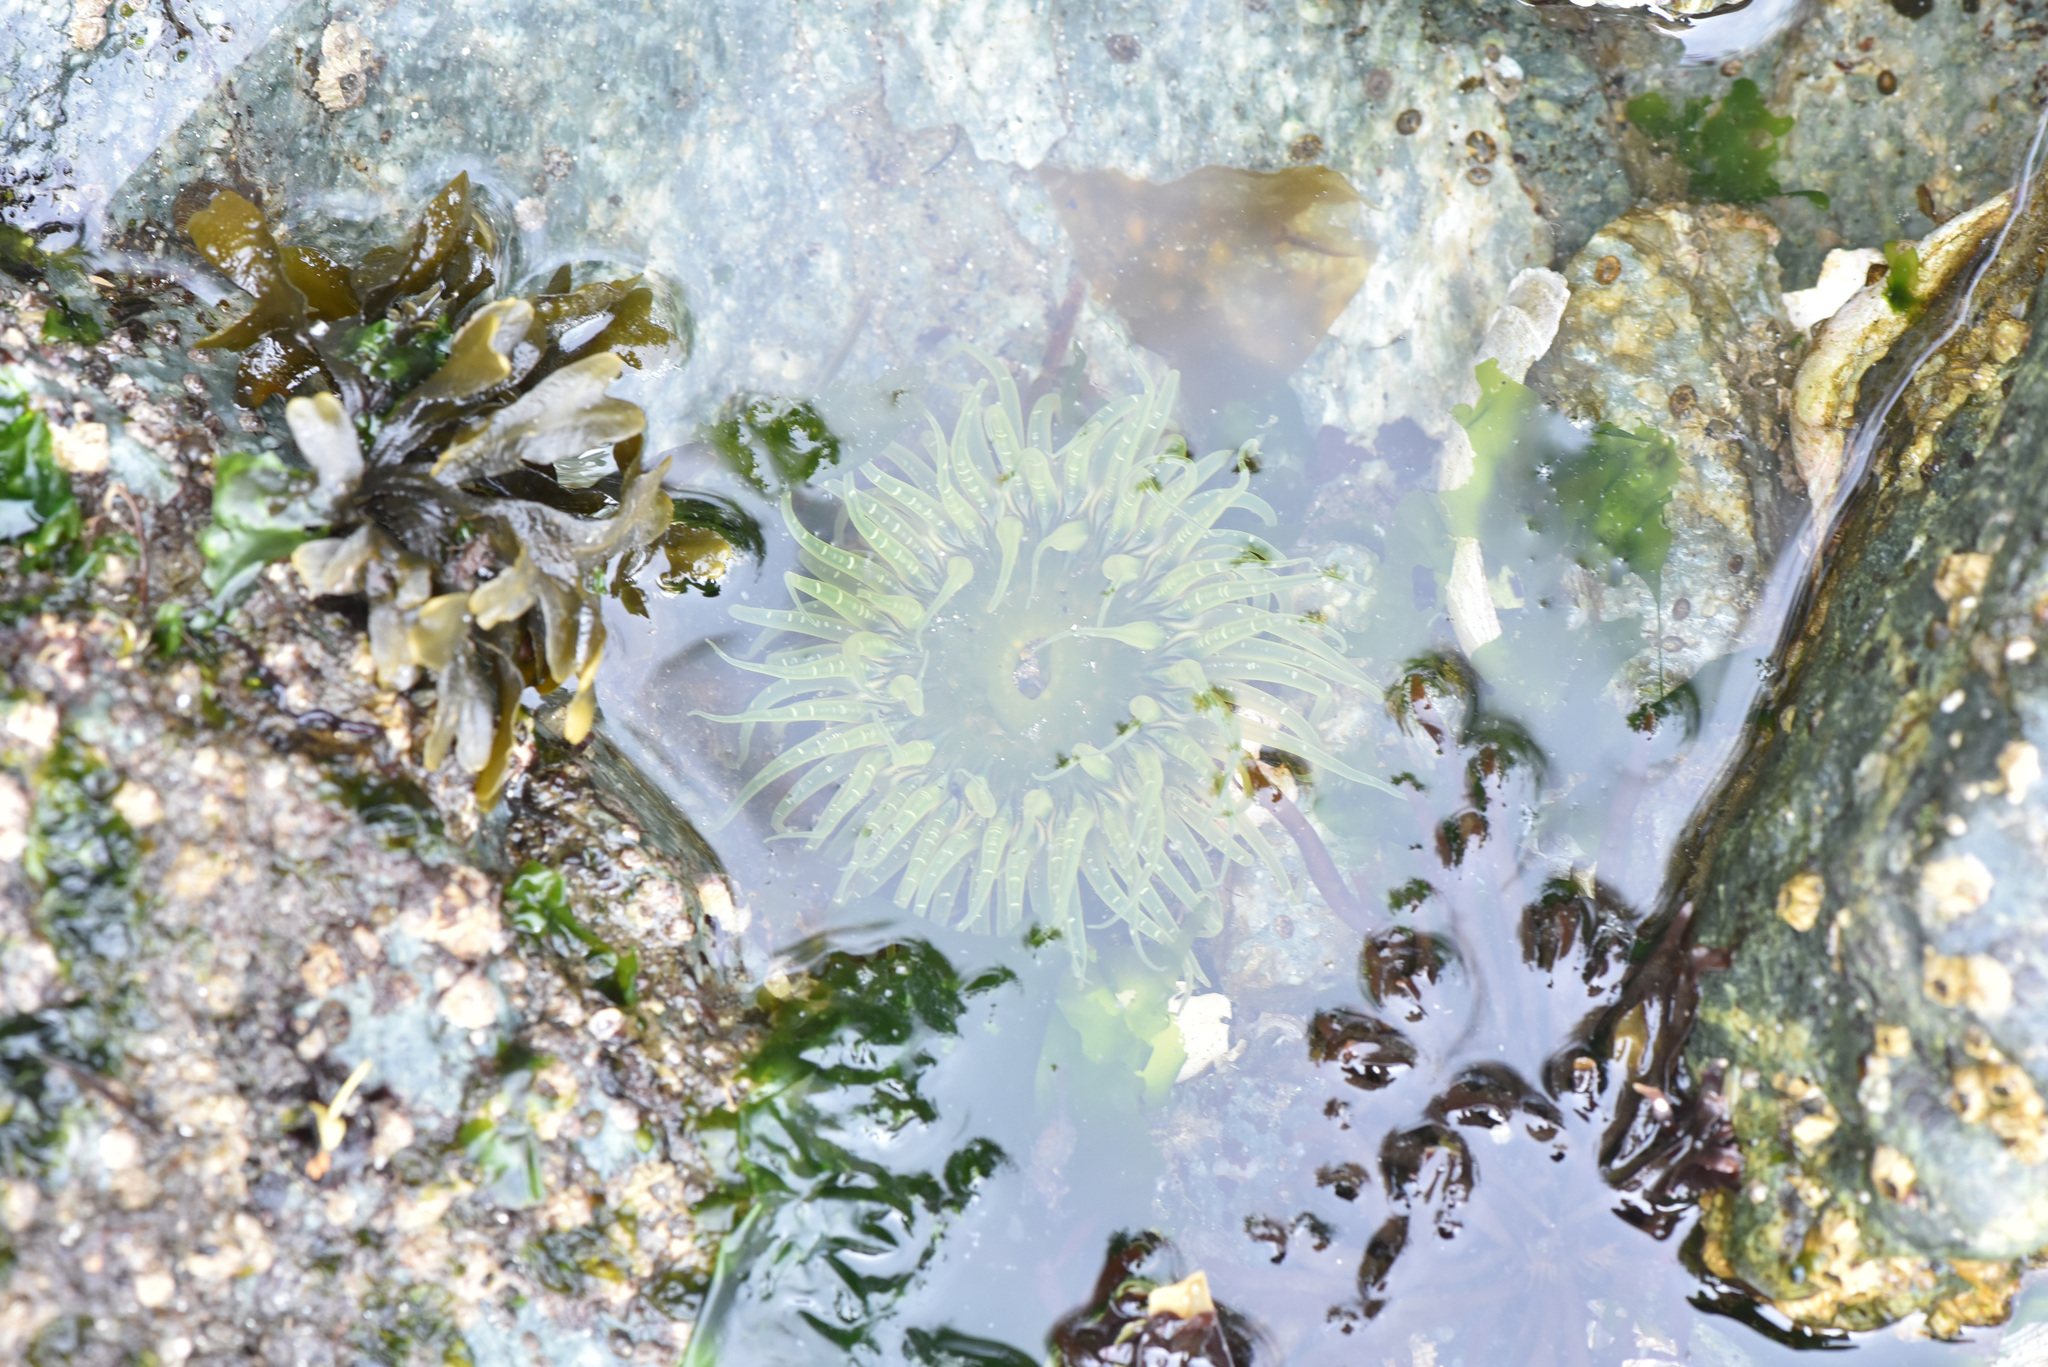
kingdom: Animalia
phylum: Cnidaria
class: Anthozoa
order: Actiniaria
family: Actiniidae
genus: Anthopleura
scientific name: Anthopleura artemisia
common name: Buried sea anemone
